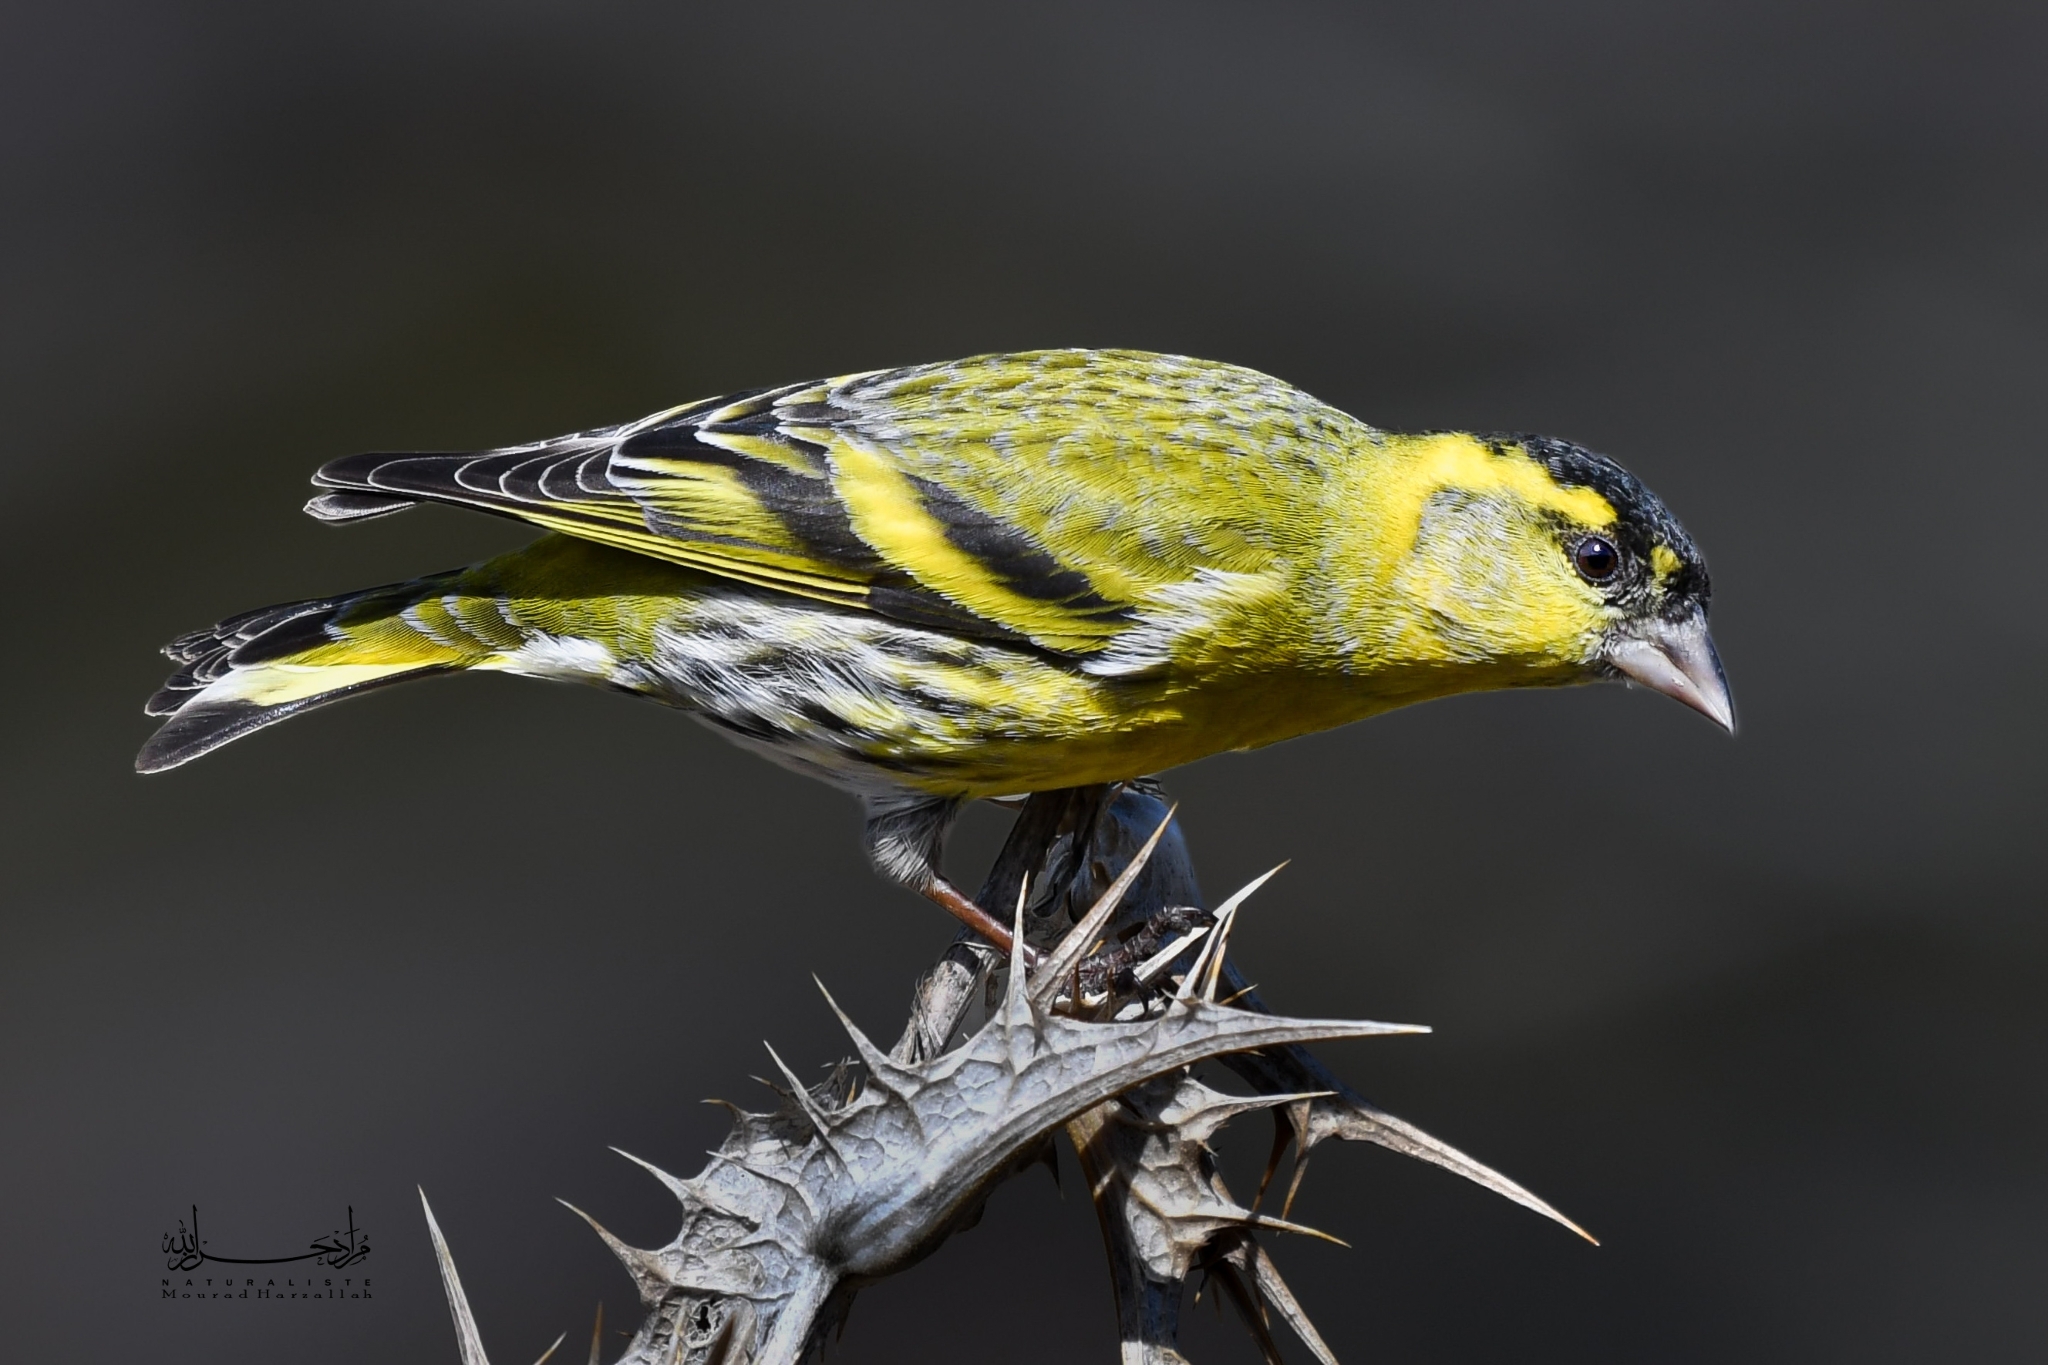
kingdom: Animalia
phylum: Chordata
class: Aves
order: Passeriformes
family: Fringillidae
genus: Spinus
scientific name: Spinus spinus
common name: Eurasian siskin
